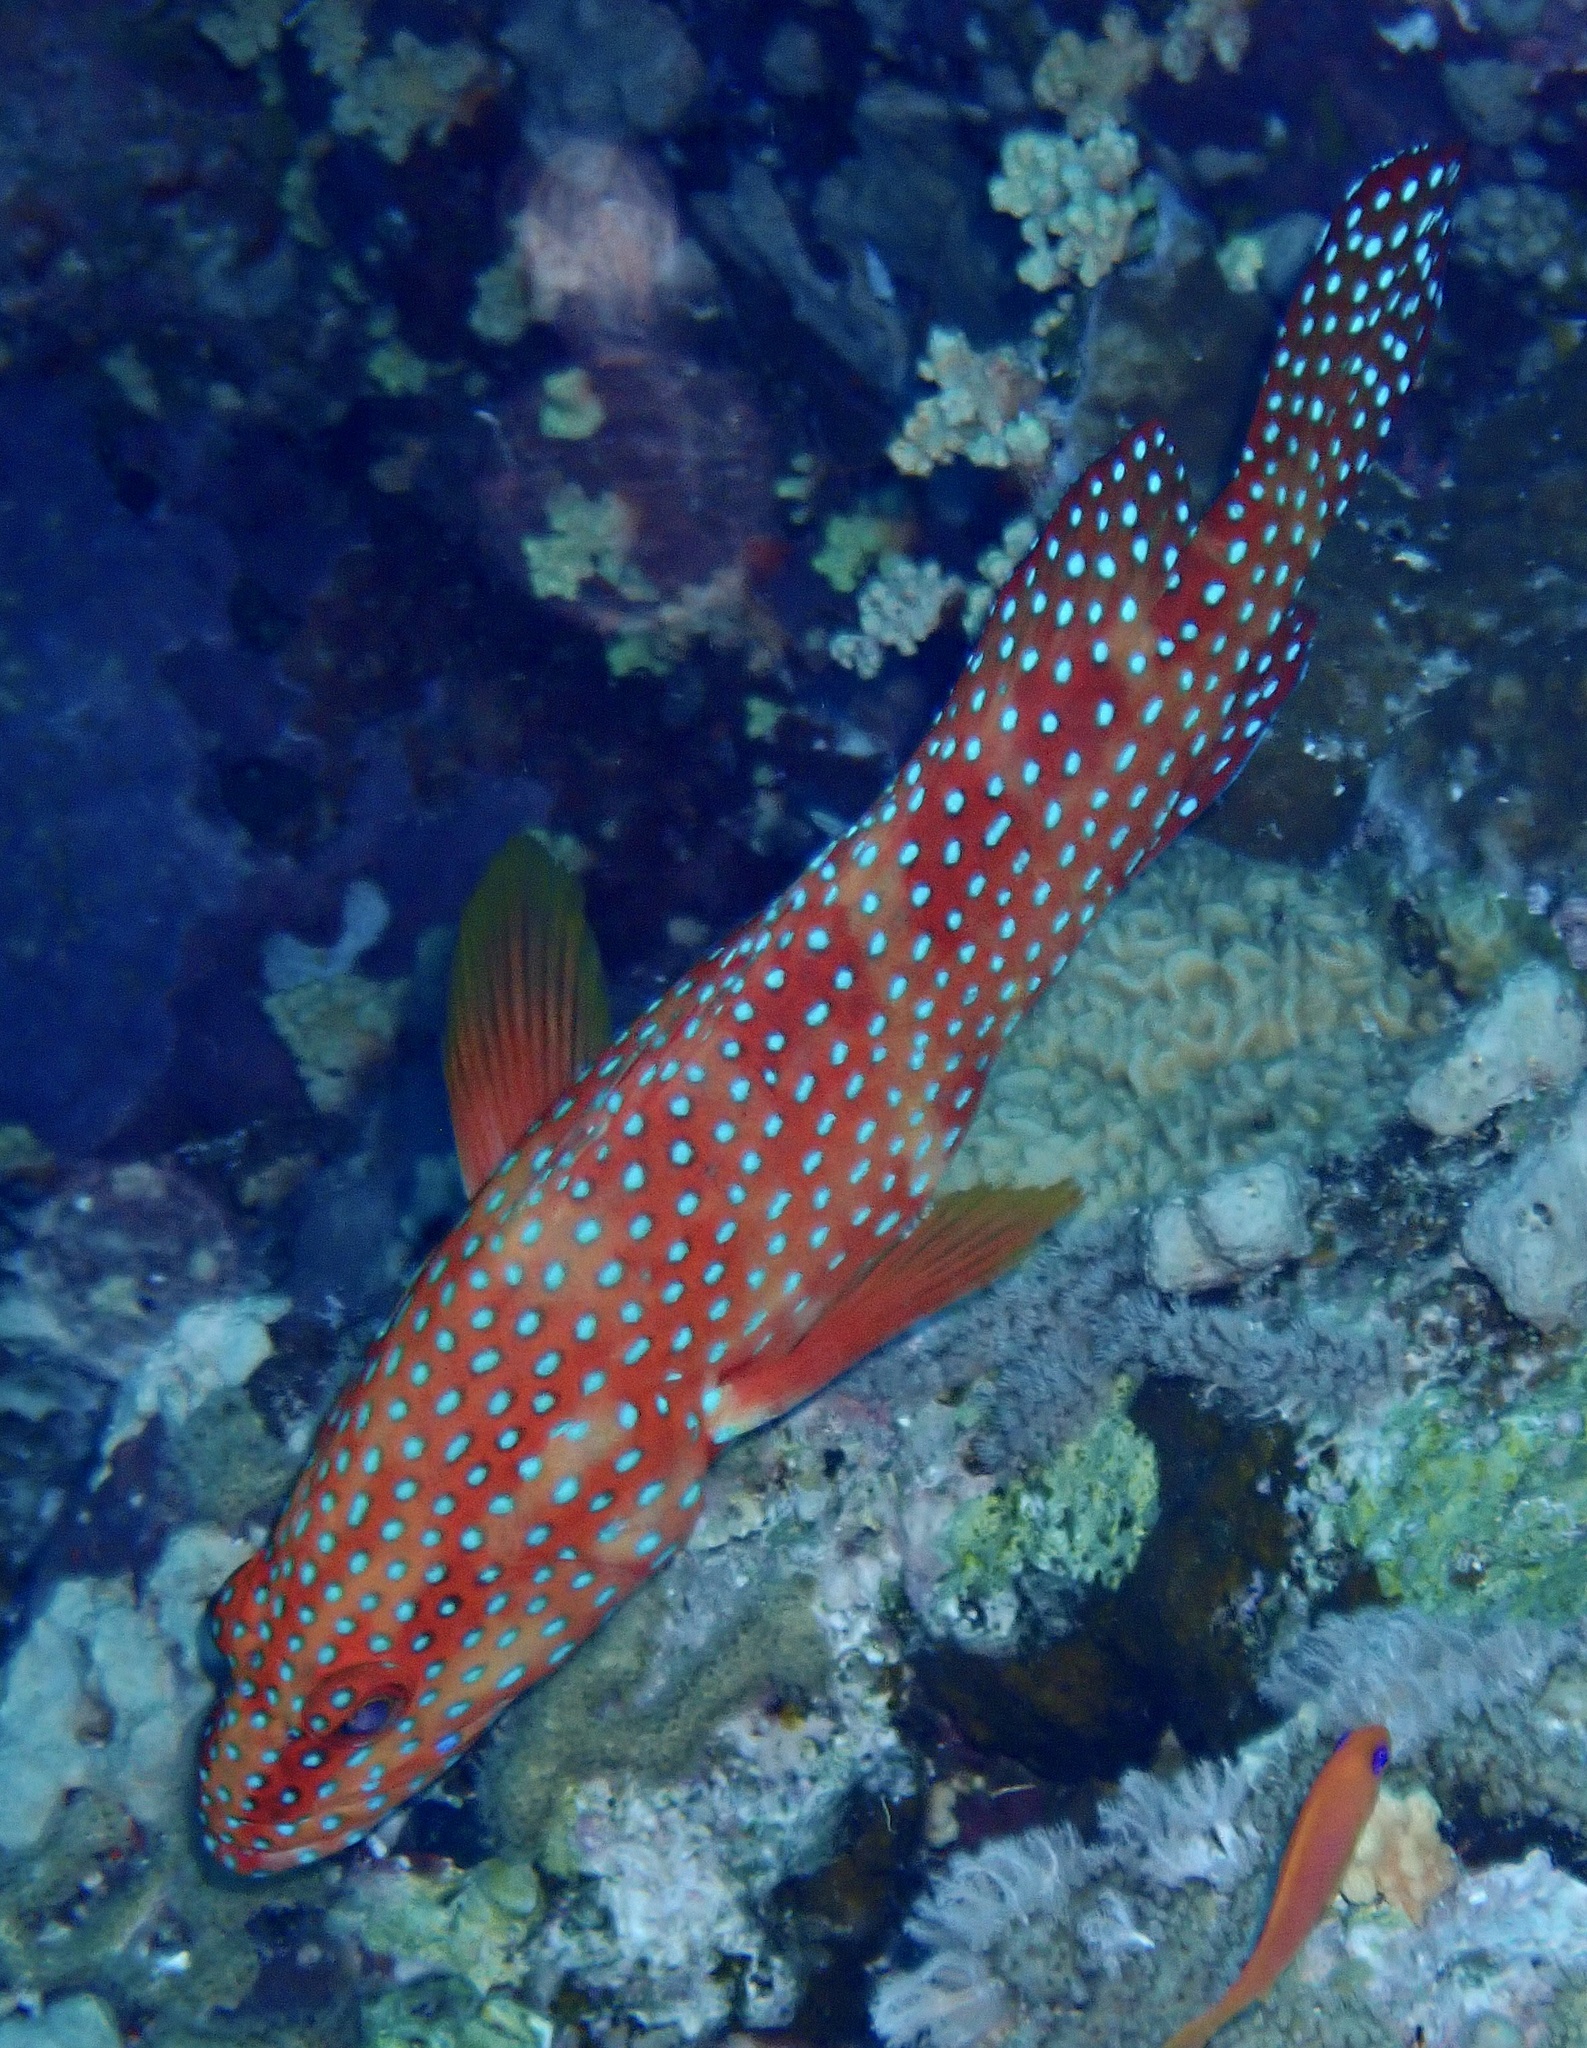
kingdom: Animalia
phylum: Chordata
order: Perciformes
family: Serranidae
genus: Cephalopholis
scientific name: Cephalopholis miniata
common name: Coral hind
